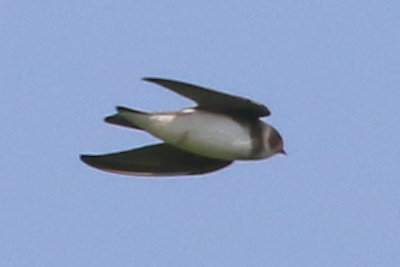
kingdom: Animalia
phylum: Chordata
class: Aves
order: Passeriformes
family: Hirundinidae
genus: Riparia
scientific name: Riparia riparia
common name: Sand martin
